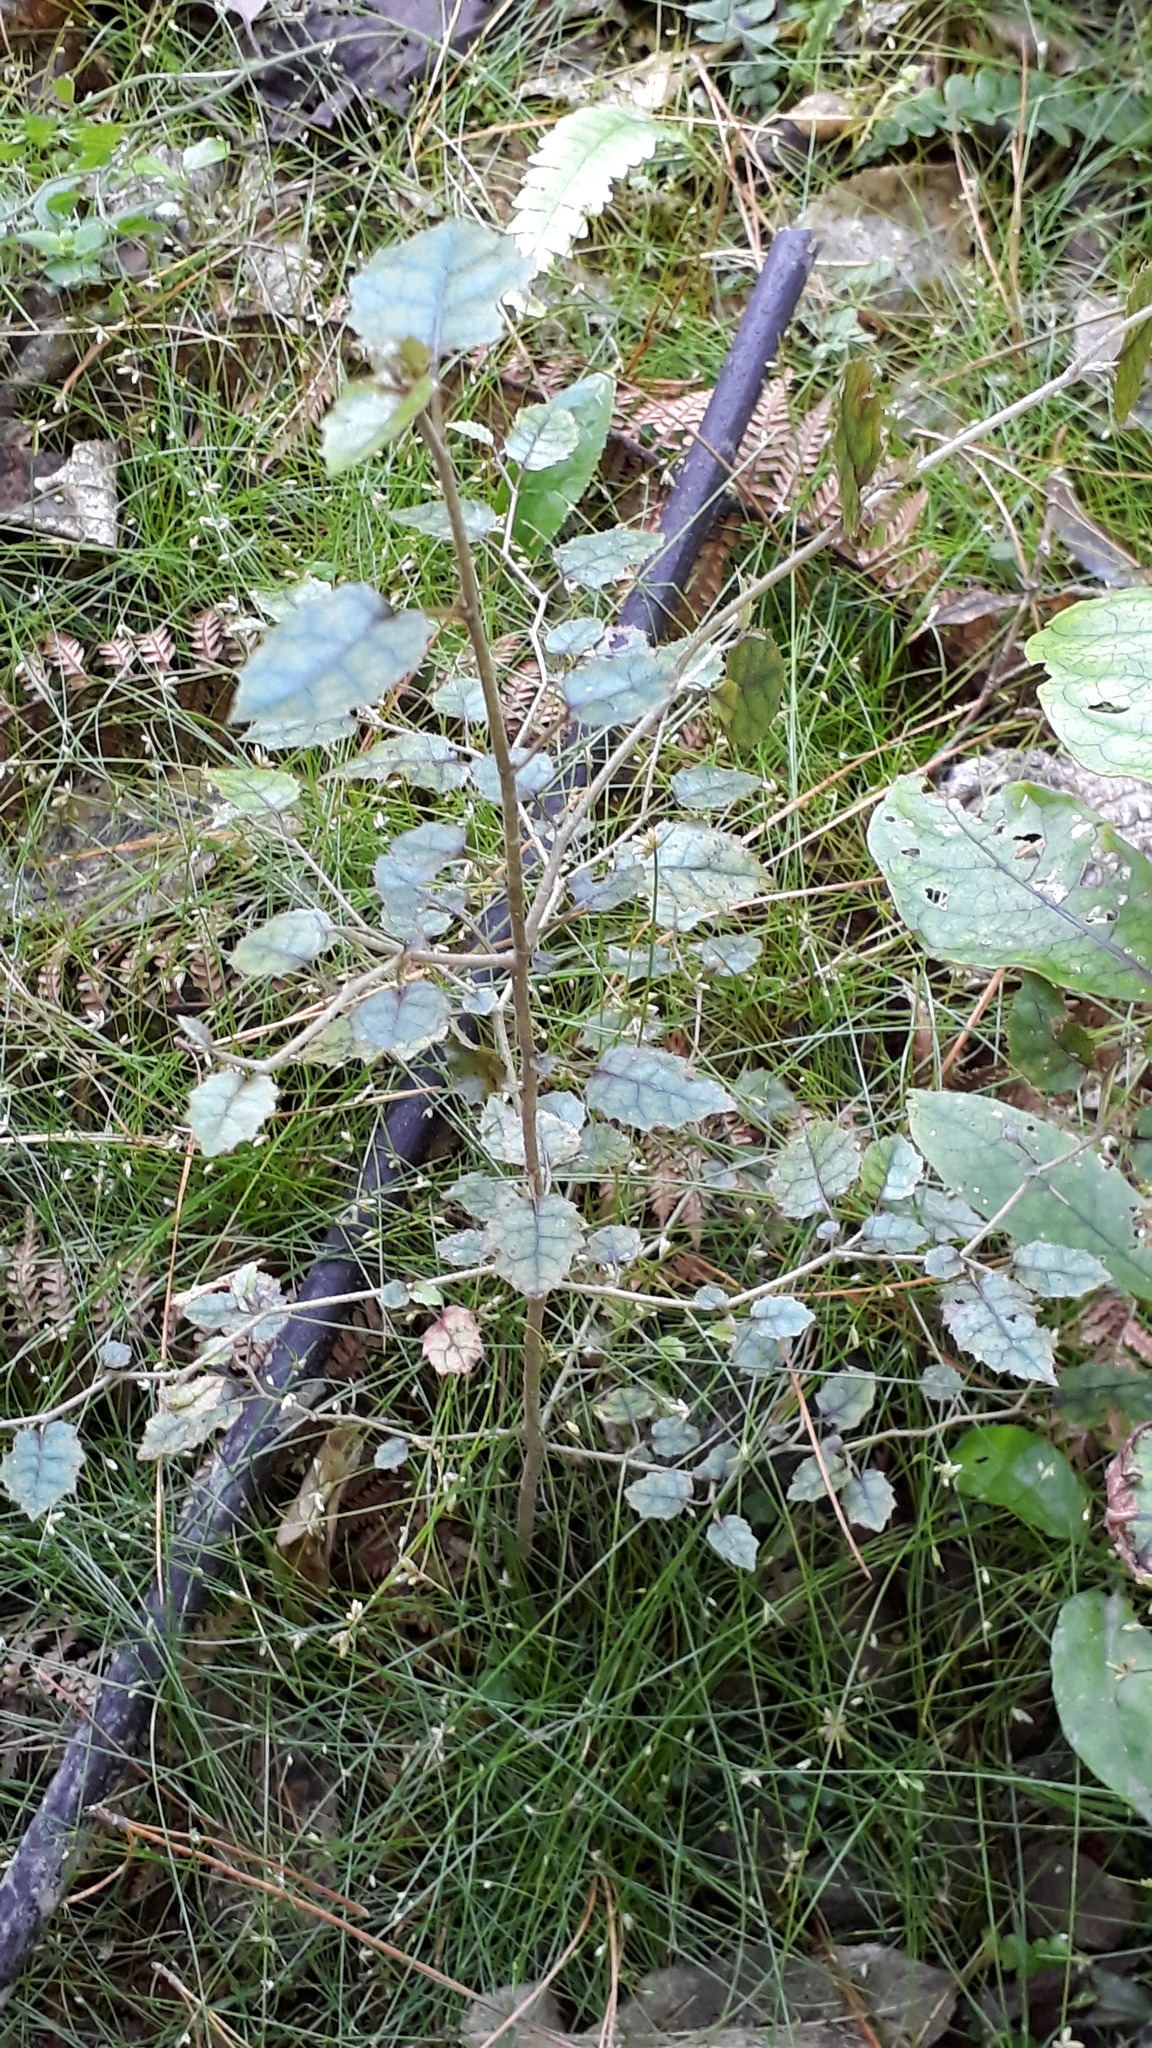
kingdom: Plantae
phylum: Tracheophyta
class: Magnoliopsida
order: Asterales
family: Rousseaceae
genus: Carpodetus
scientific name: Carpodetus serratus
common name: White mapau
